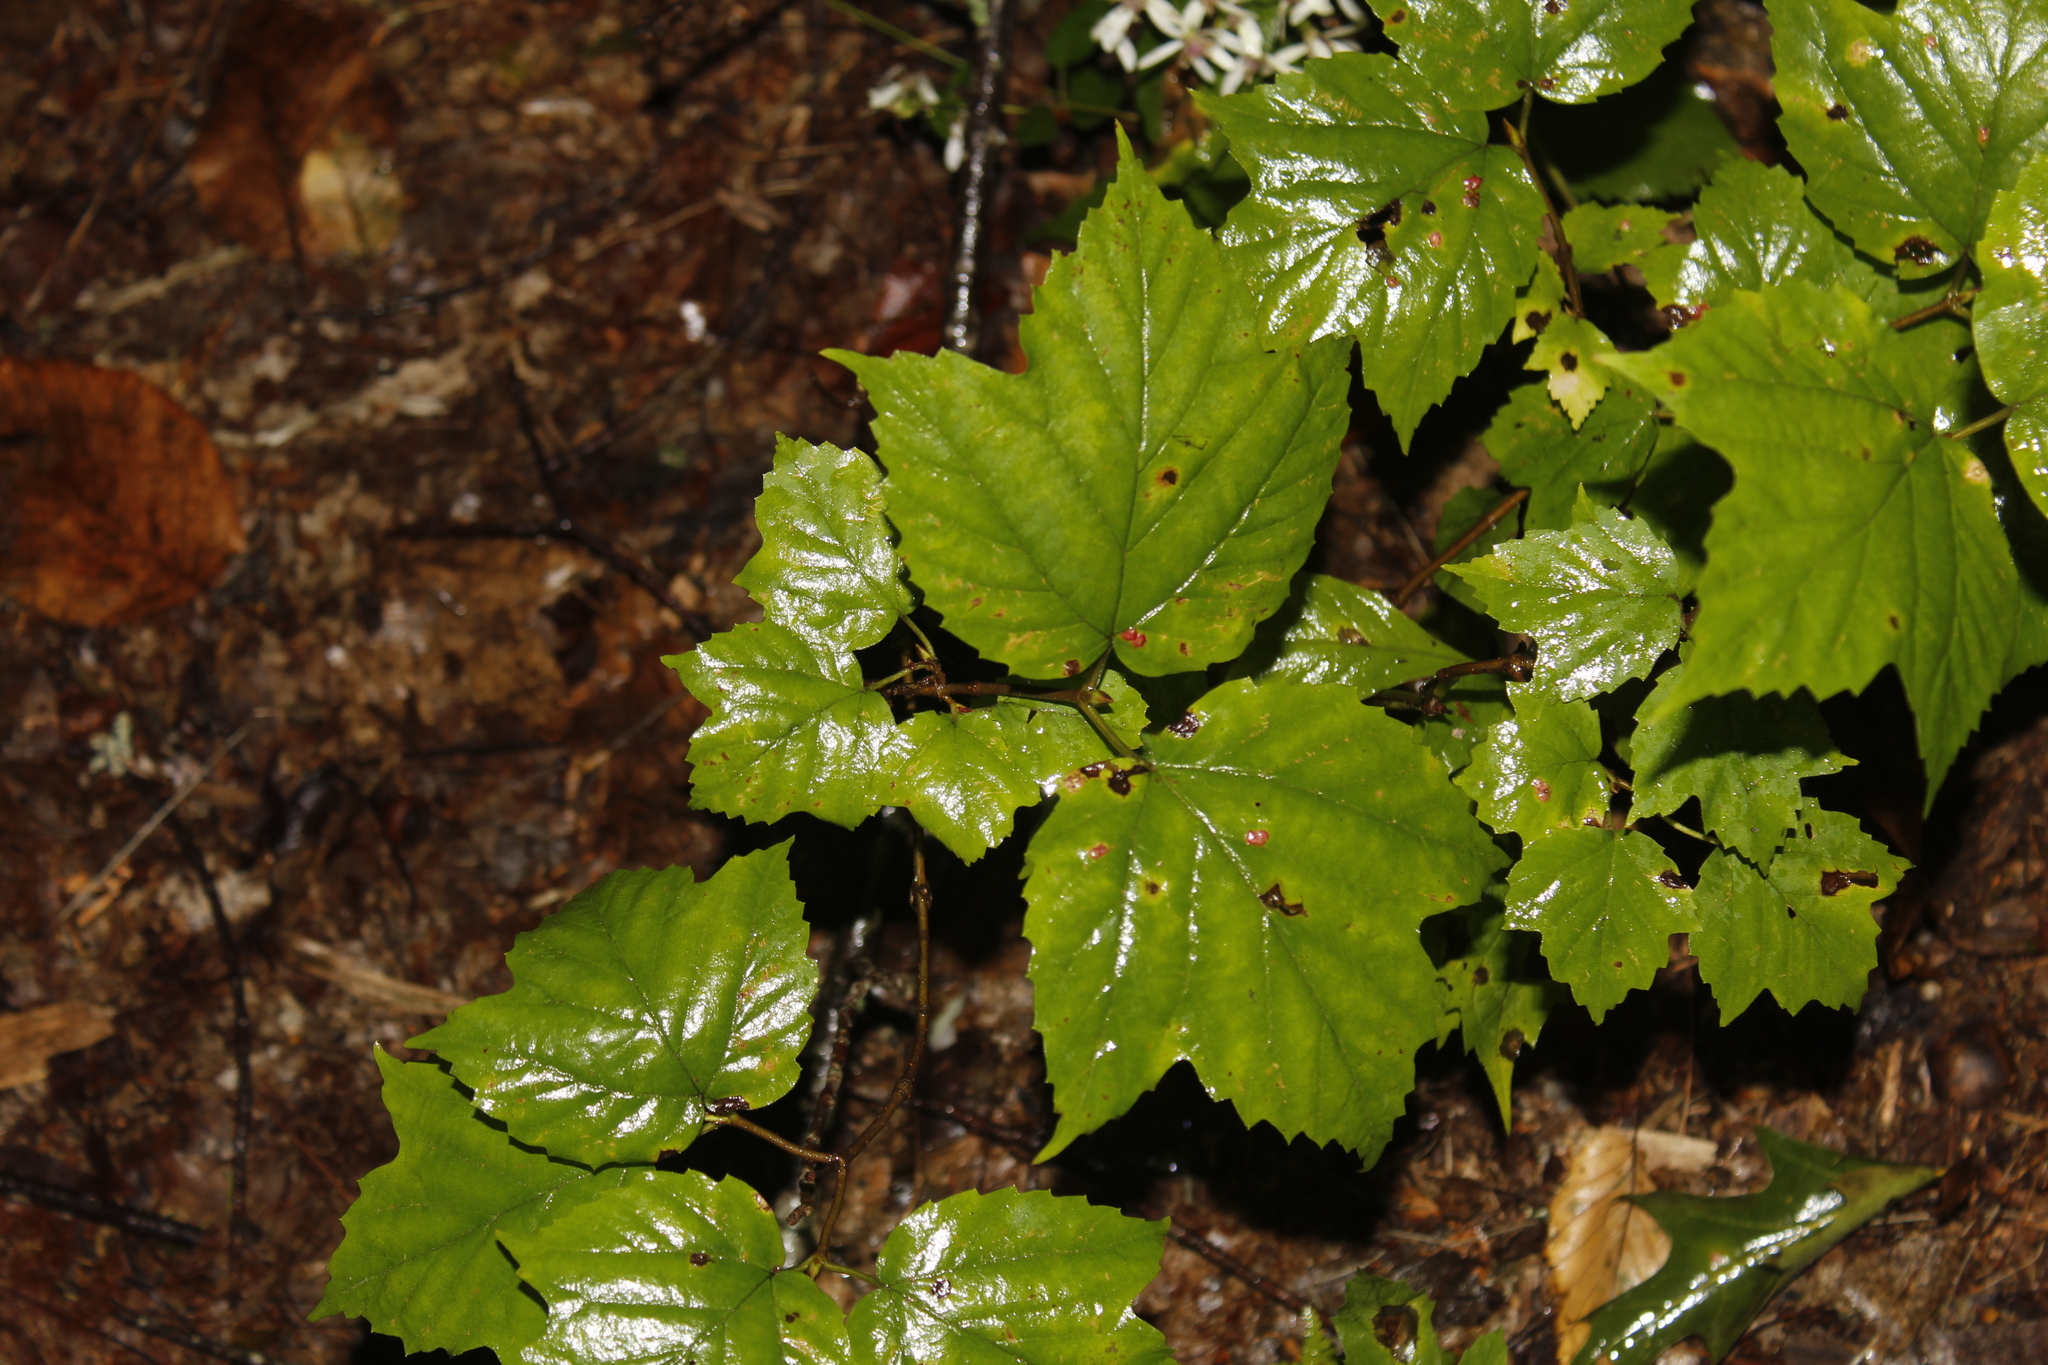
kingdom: Plantae
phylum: Tracheophyta
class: Magnoliopsida
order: Dipsacales
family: Viburnaceae
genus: Viburnum
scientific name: Viburnum acerifolium
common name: Dockmackie
